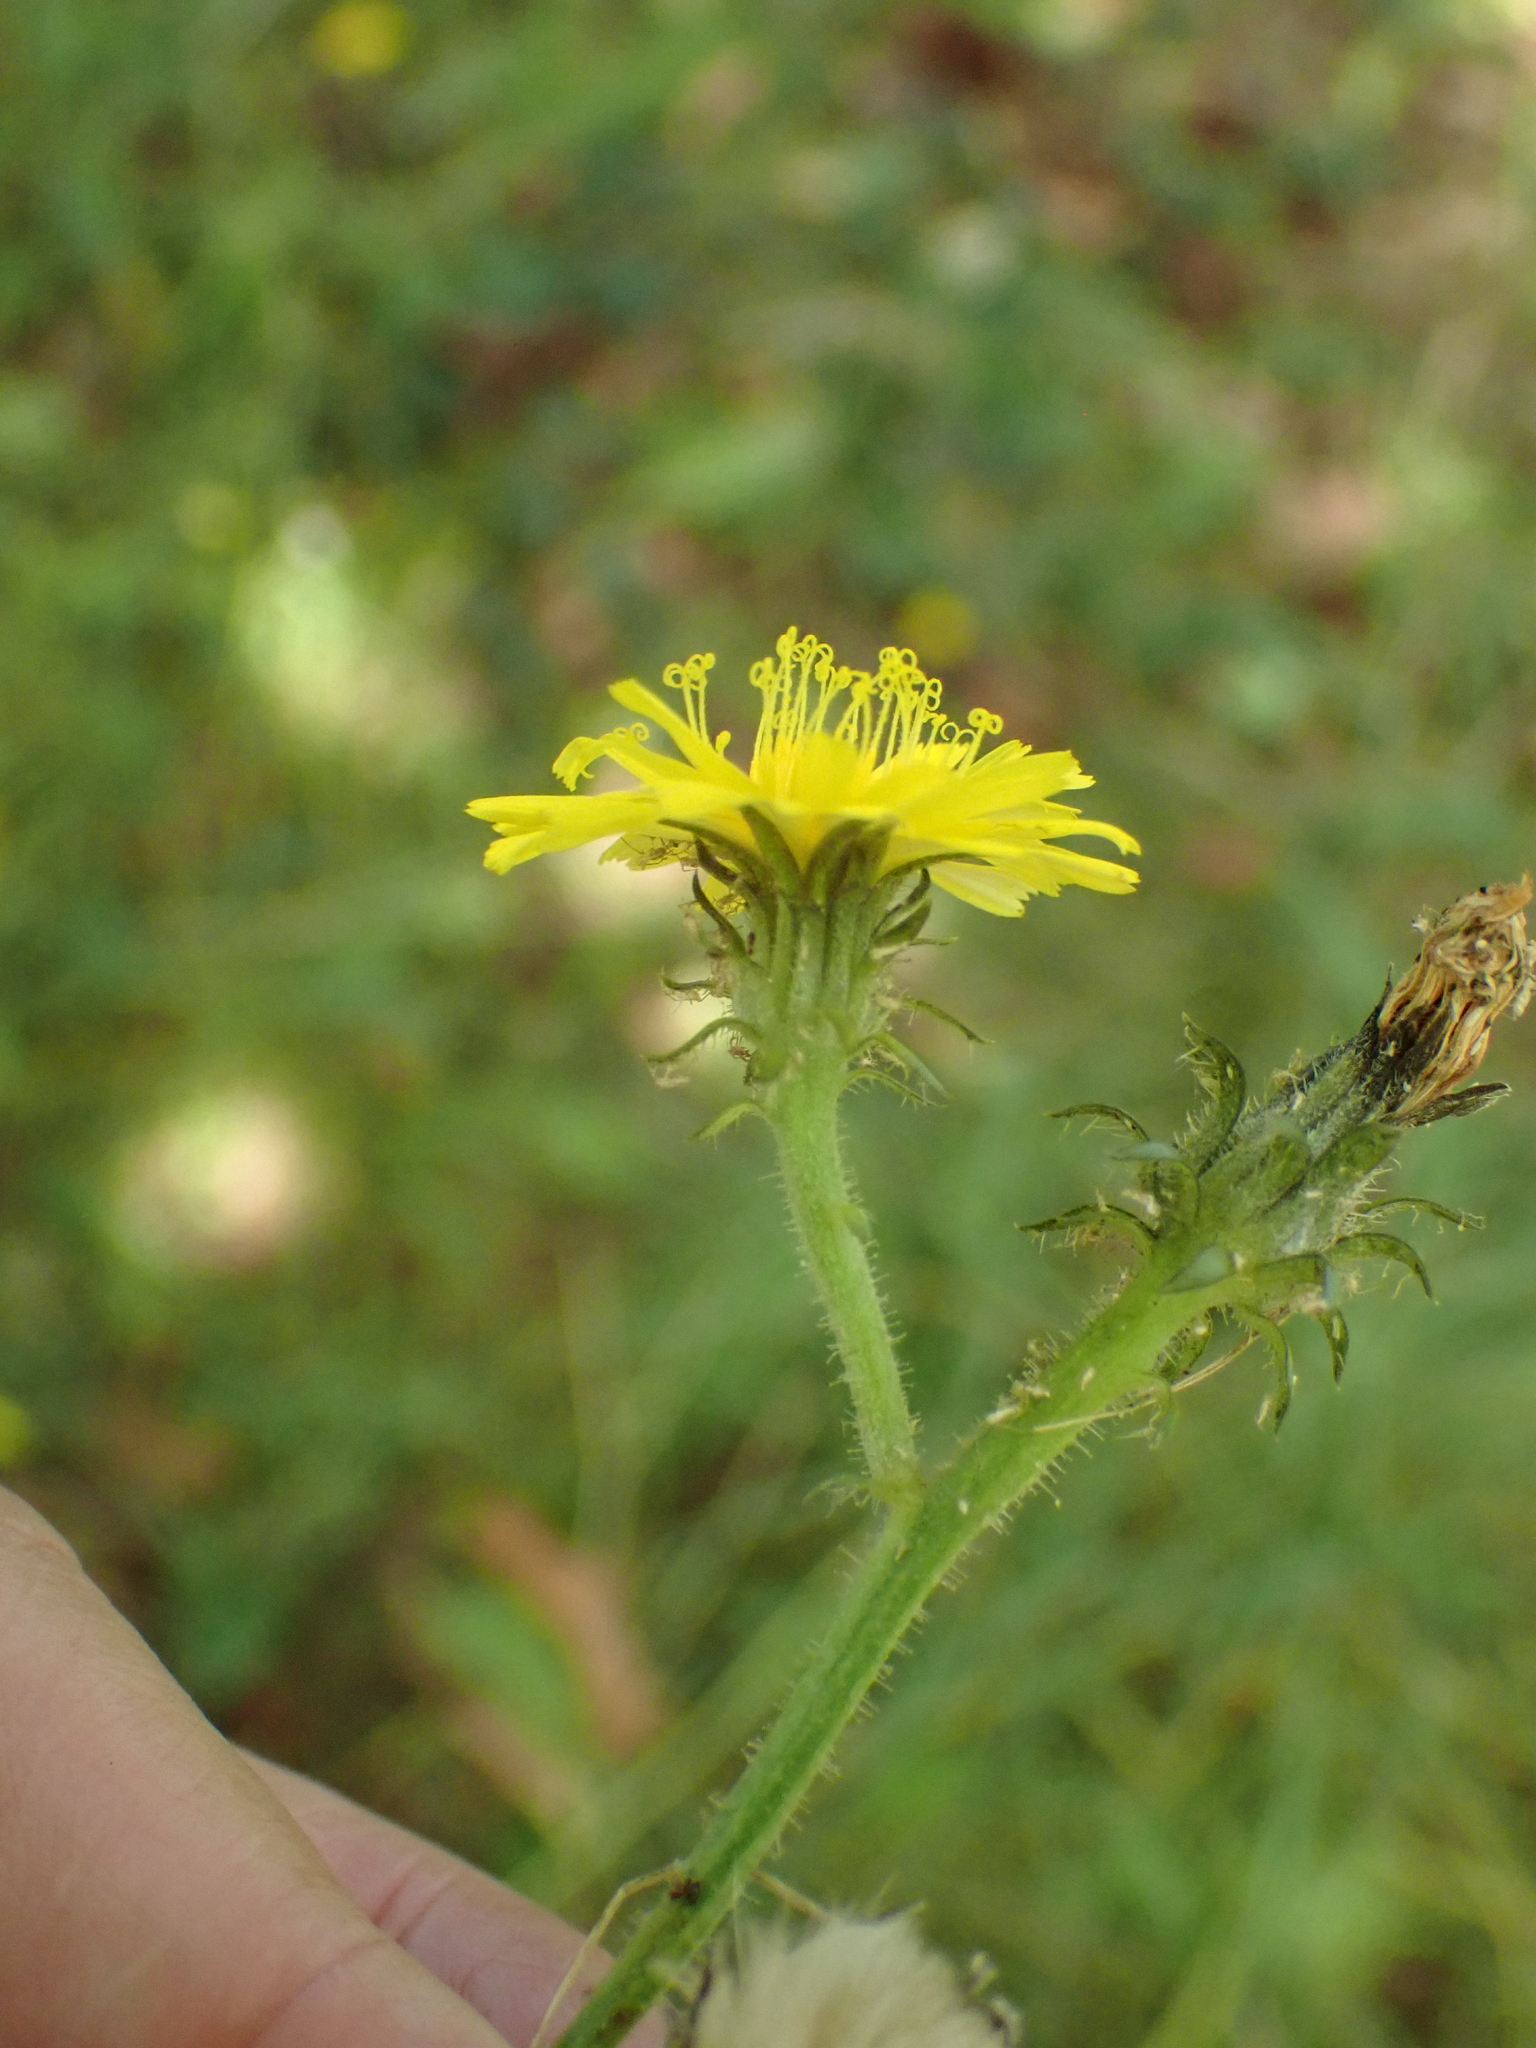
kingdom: Plantae
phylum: Tracheophyta
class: Magnoliopsida
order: Asterales
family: Asteraceae
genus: Picris
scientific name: Picris hieracioides
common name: Hawkweed oxtongue
